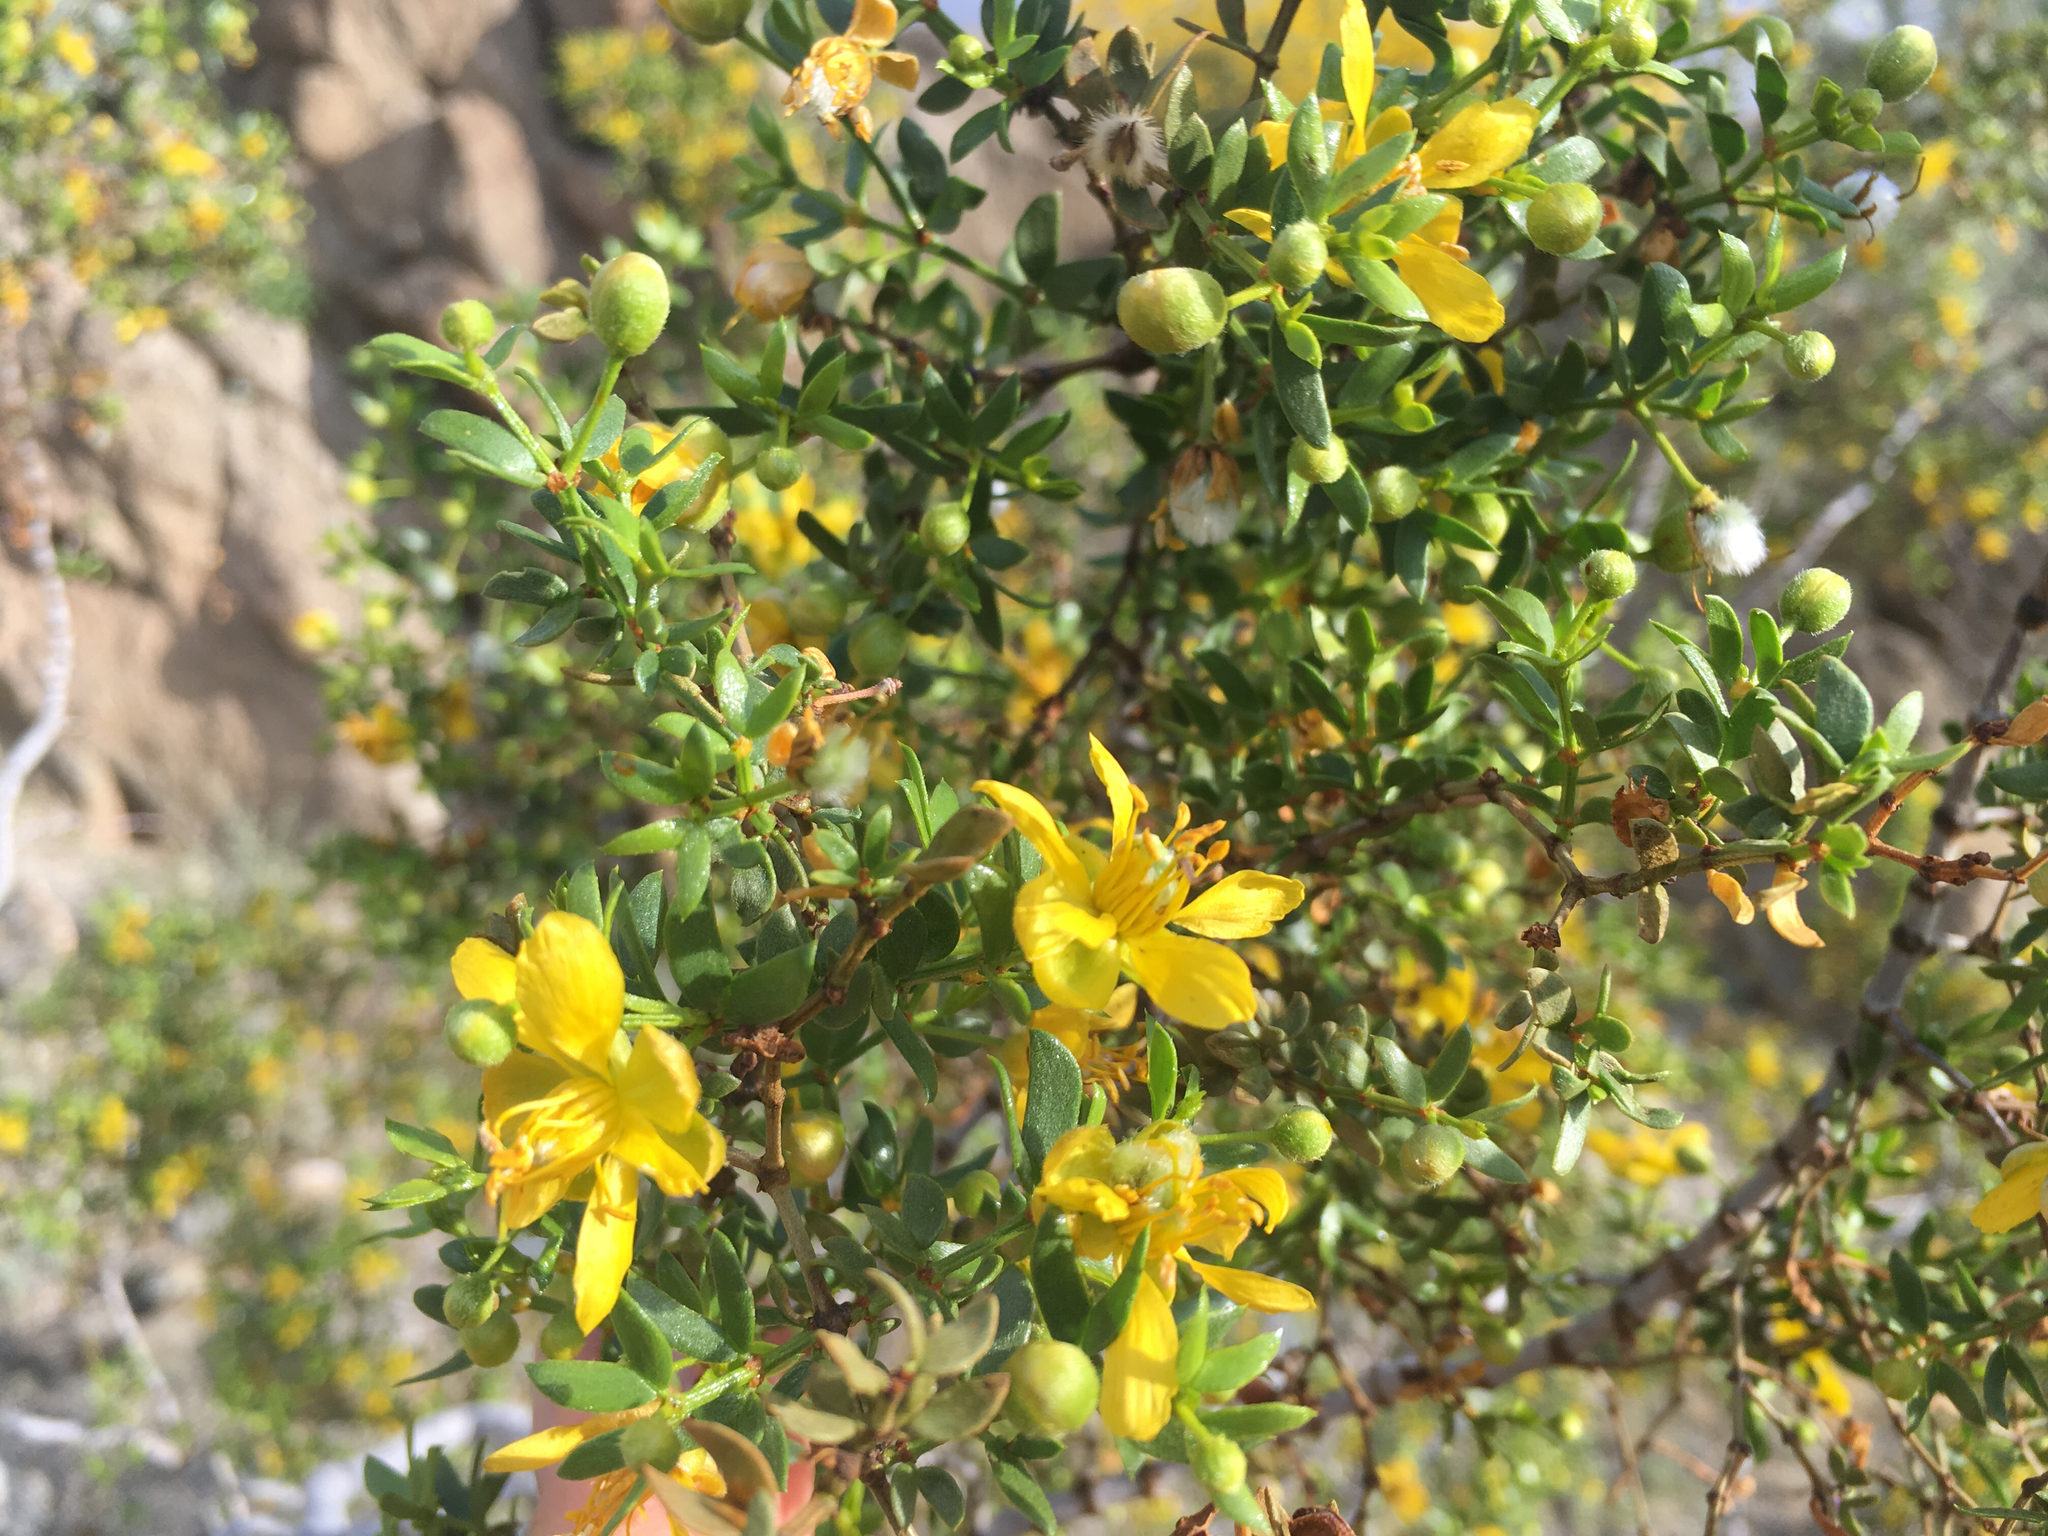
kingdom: Plantae
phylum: Tracheophyta
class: Magnoliopsida
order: Zygophyllales
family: Zygophyllaceae
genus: Larrea
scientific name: Larrea tridentata
